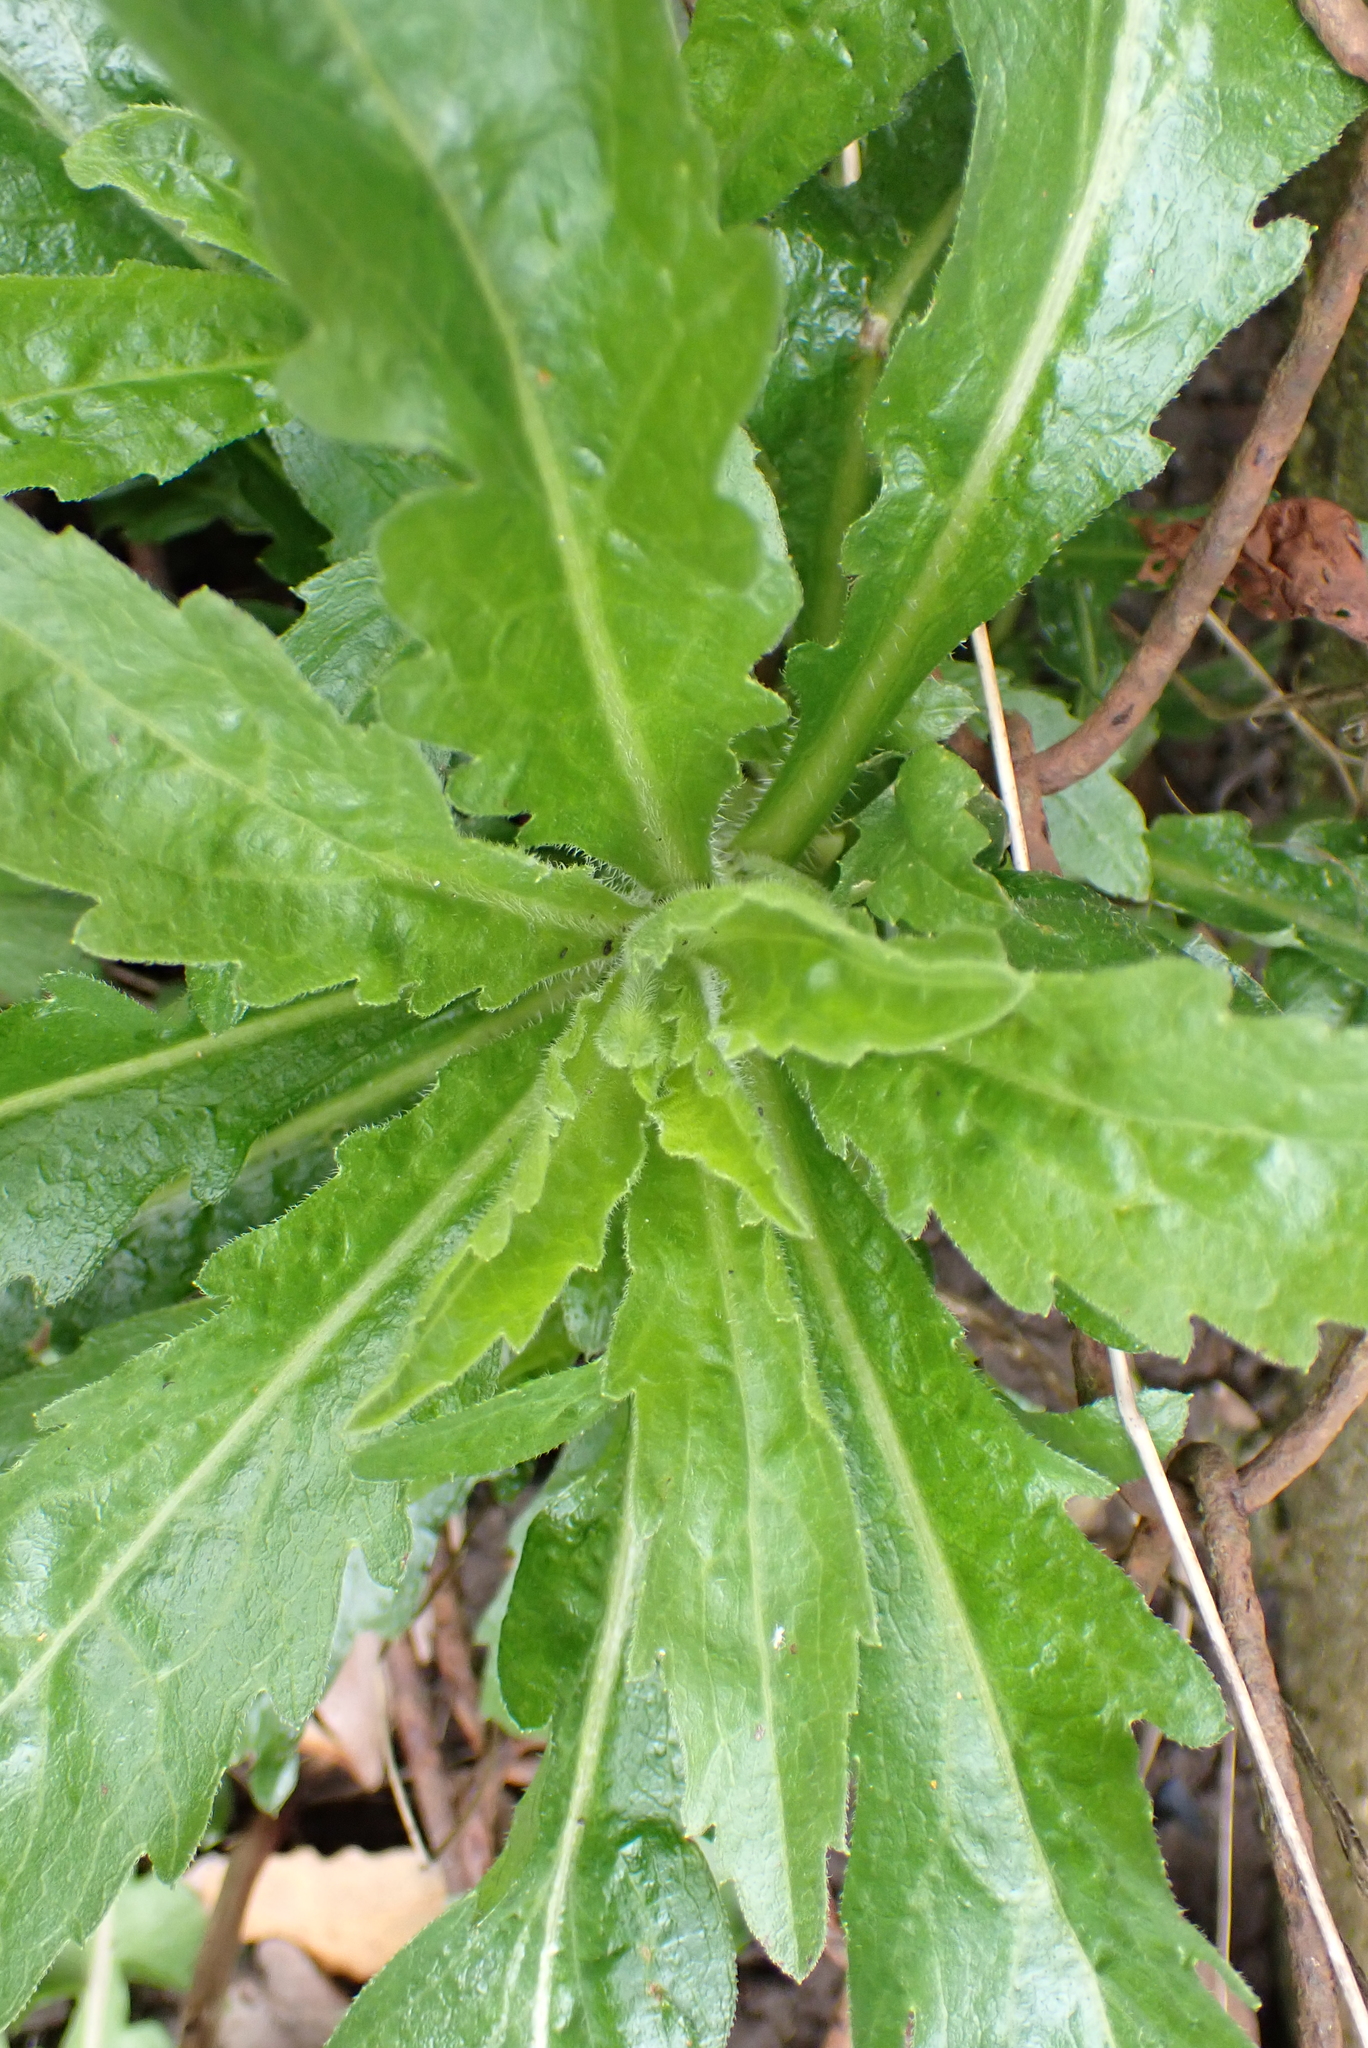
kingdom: Plantae
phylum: Tracheophyta
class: Magnoliopsida
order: Asterales
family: Asteraceae
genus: Erigeron
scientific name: Erigeron floribundus
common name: Bilbao fleabane
